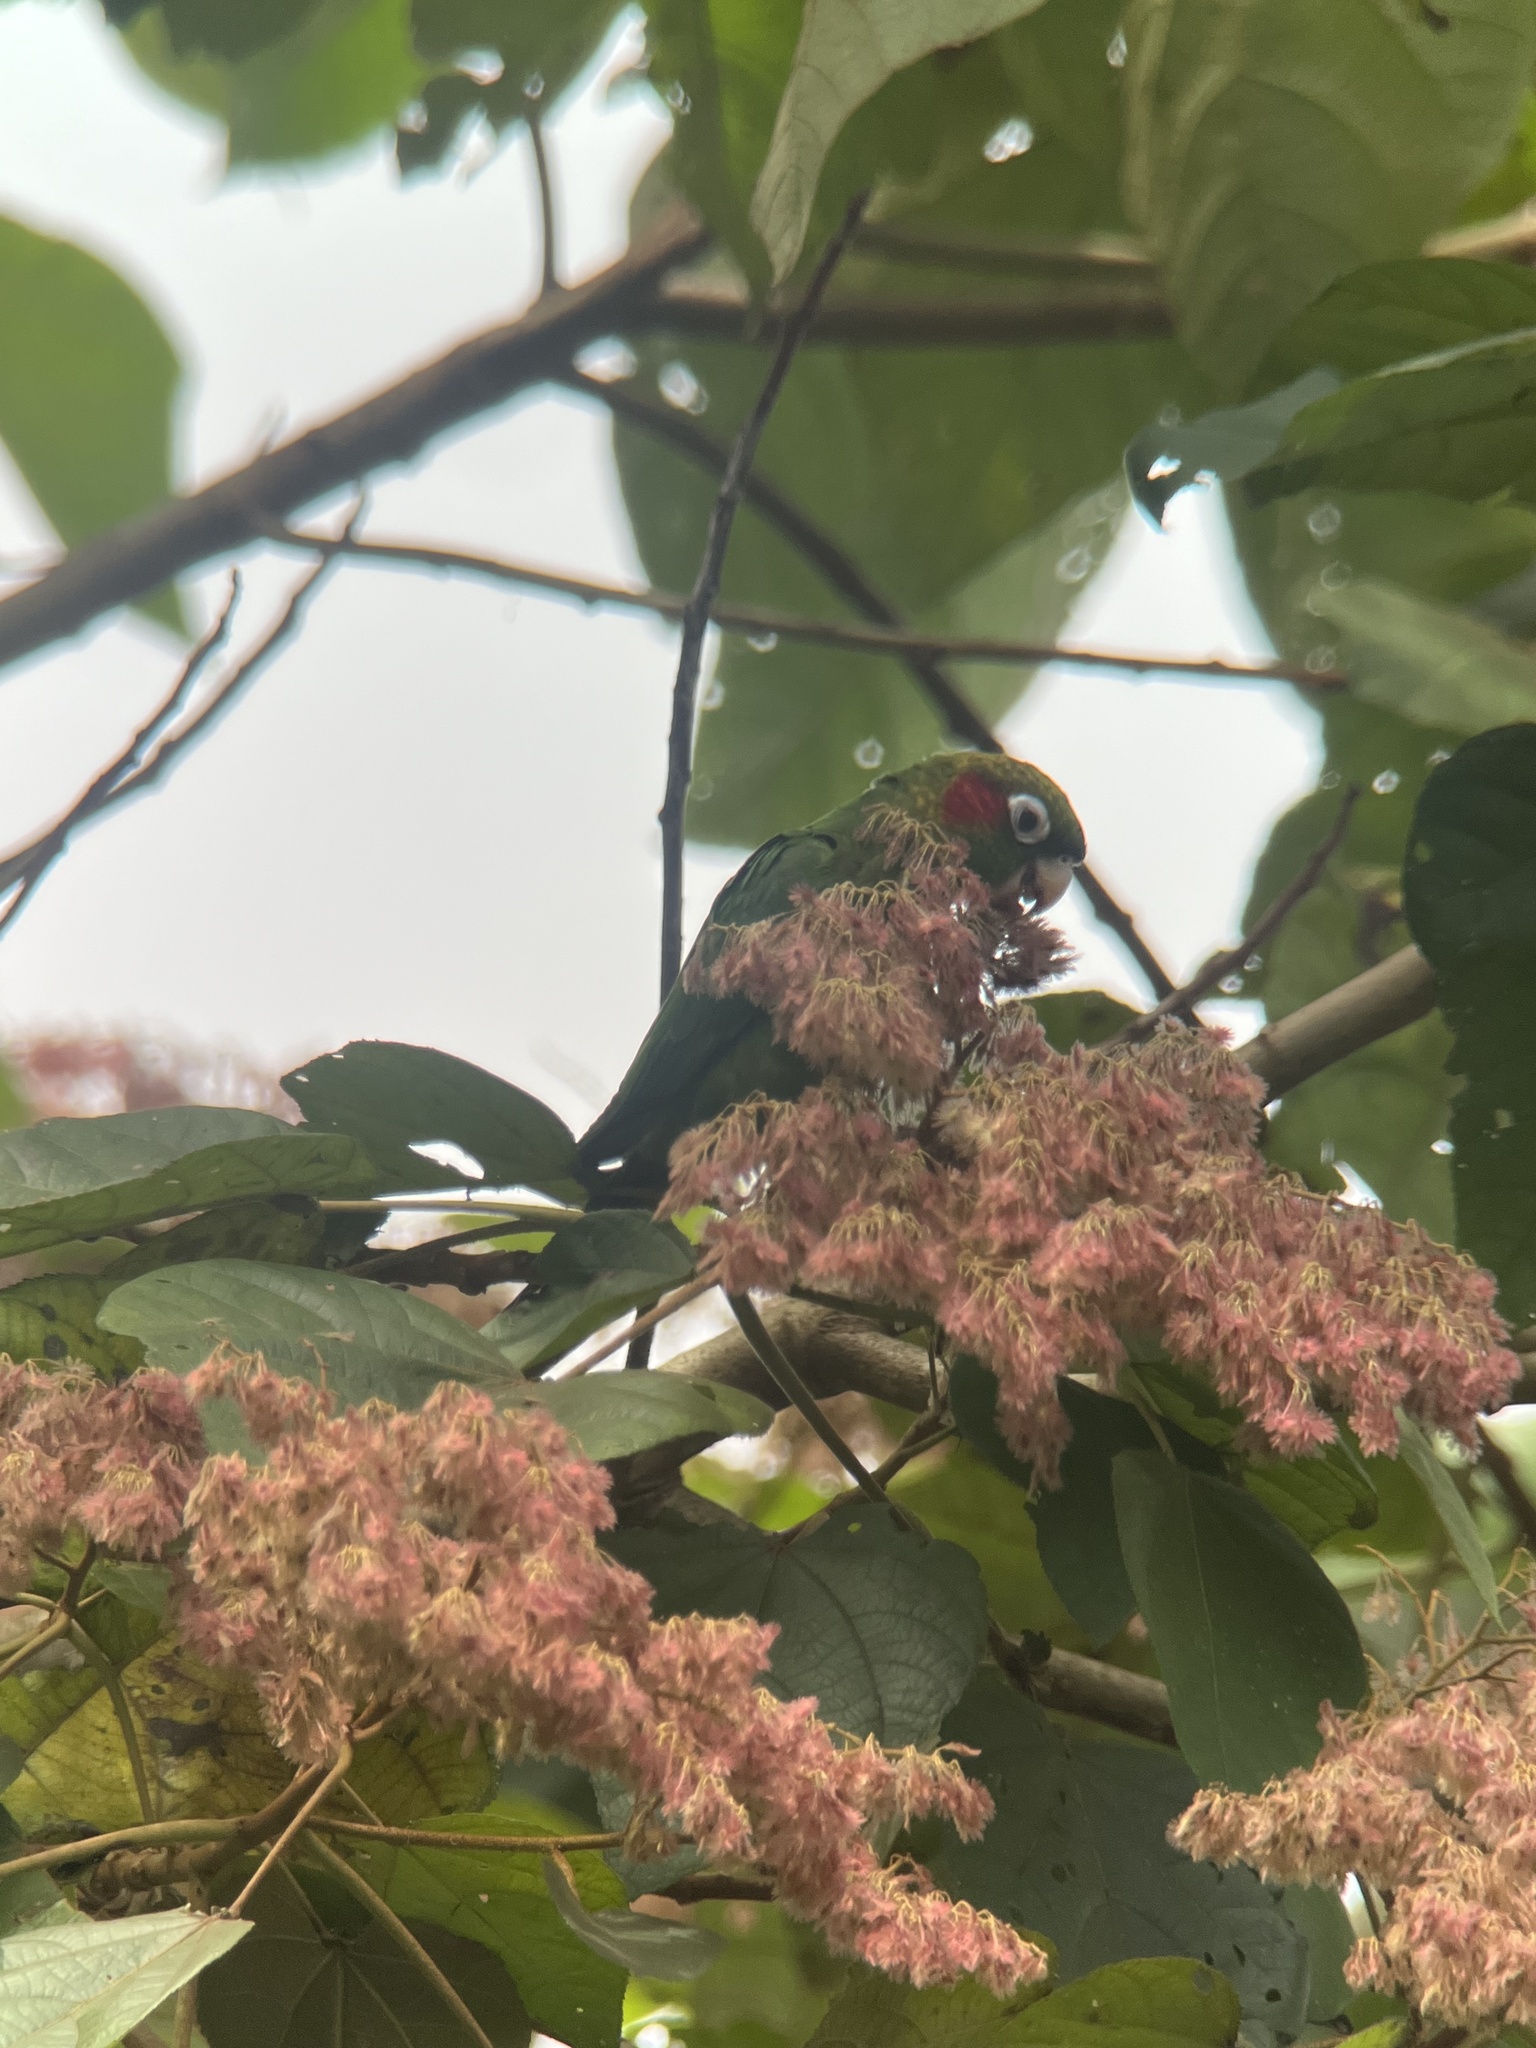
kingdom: Animalia
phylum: Chordata
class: Aves
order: Psittaciformes
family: Psittacidae
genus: Pyrrhura
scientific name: Pyrrhura hoffmanni
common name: Sulphur-winged parakeet
